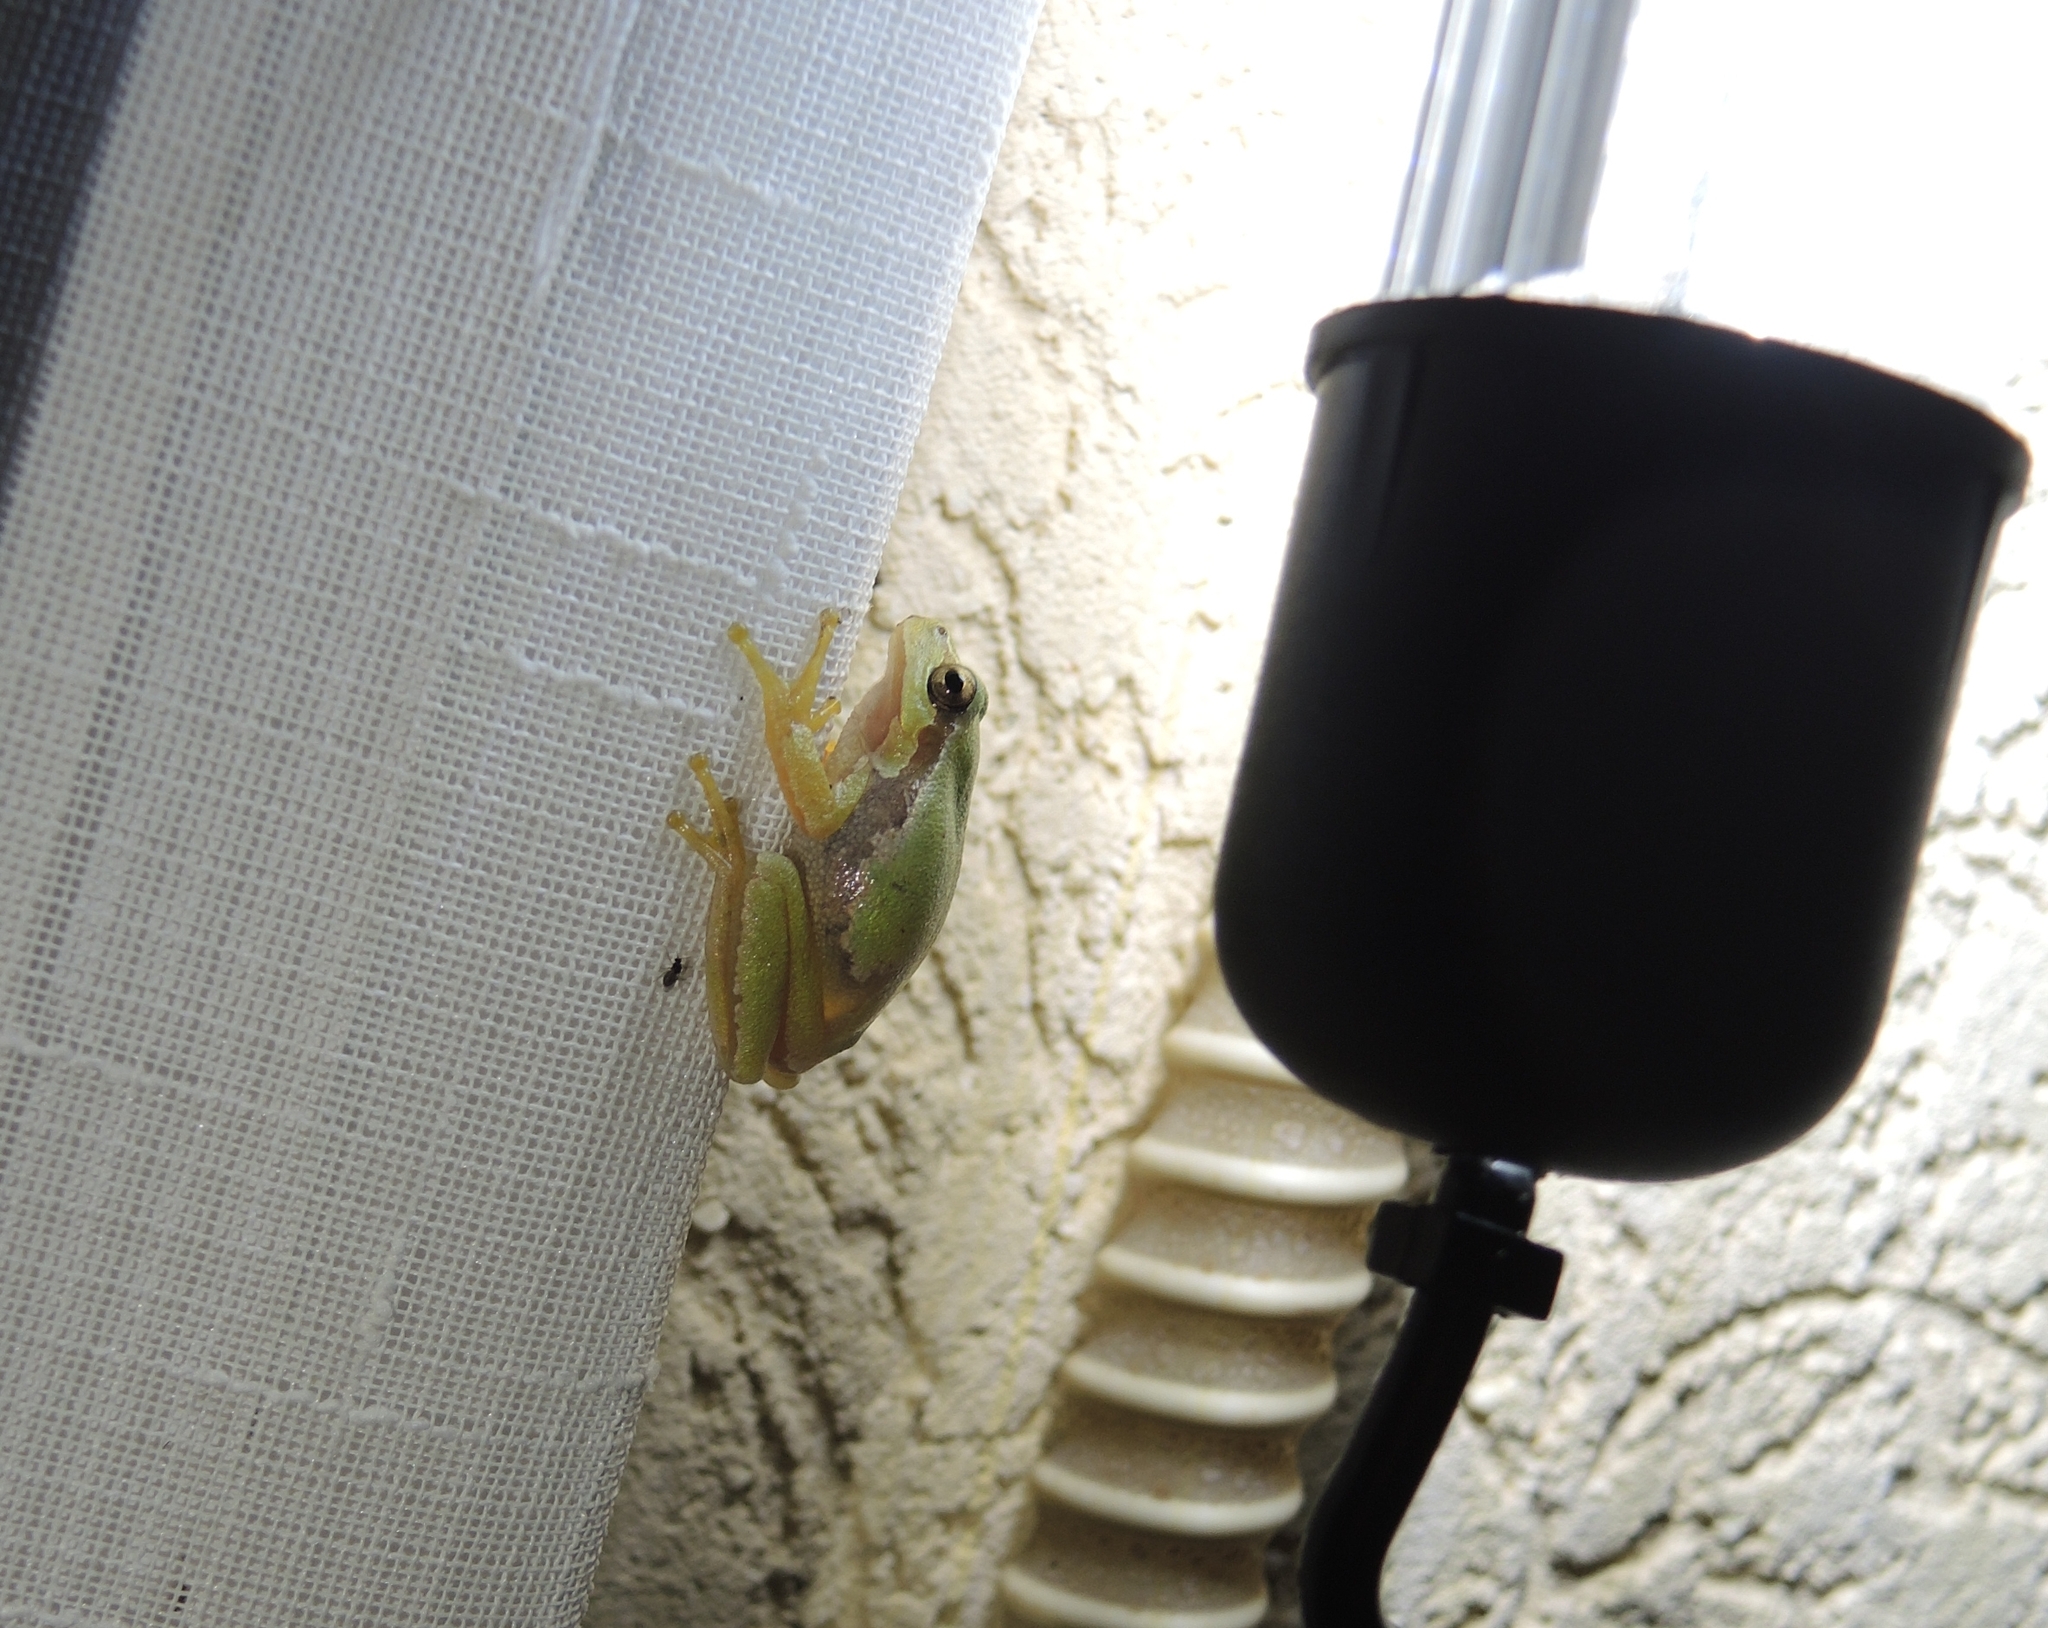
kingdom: Animalia
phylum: Chordata
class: Amphibia
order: Anura
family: Hylidae
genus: Hyla
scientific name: Hyla orientalis
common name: Caucasian treefrog
